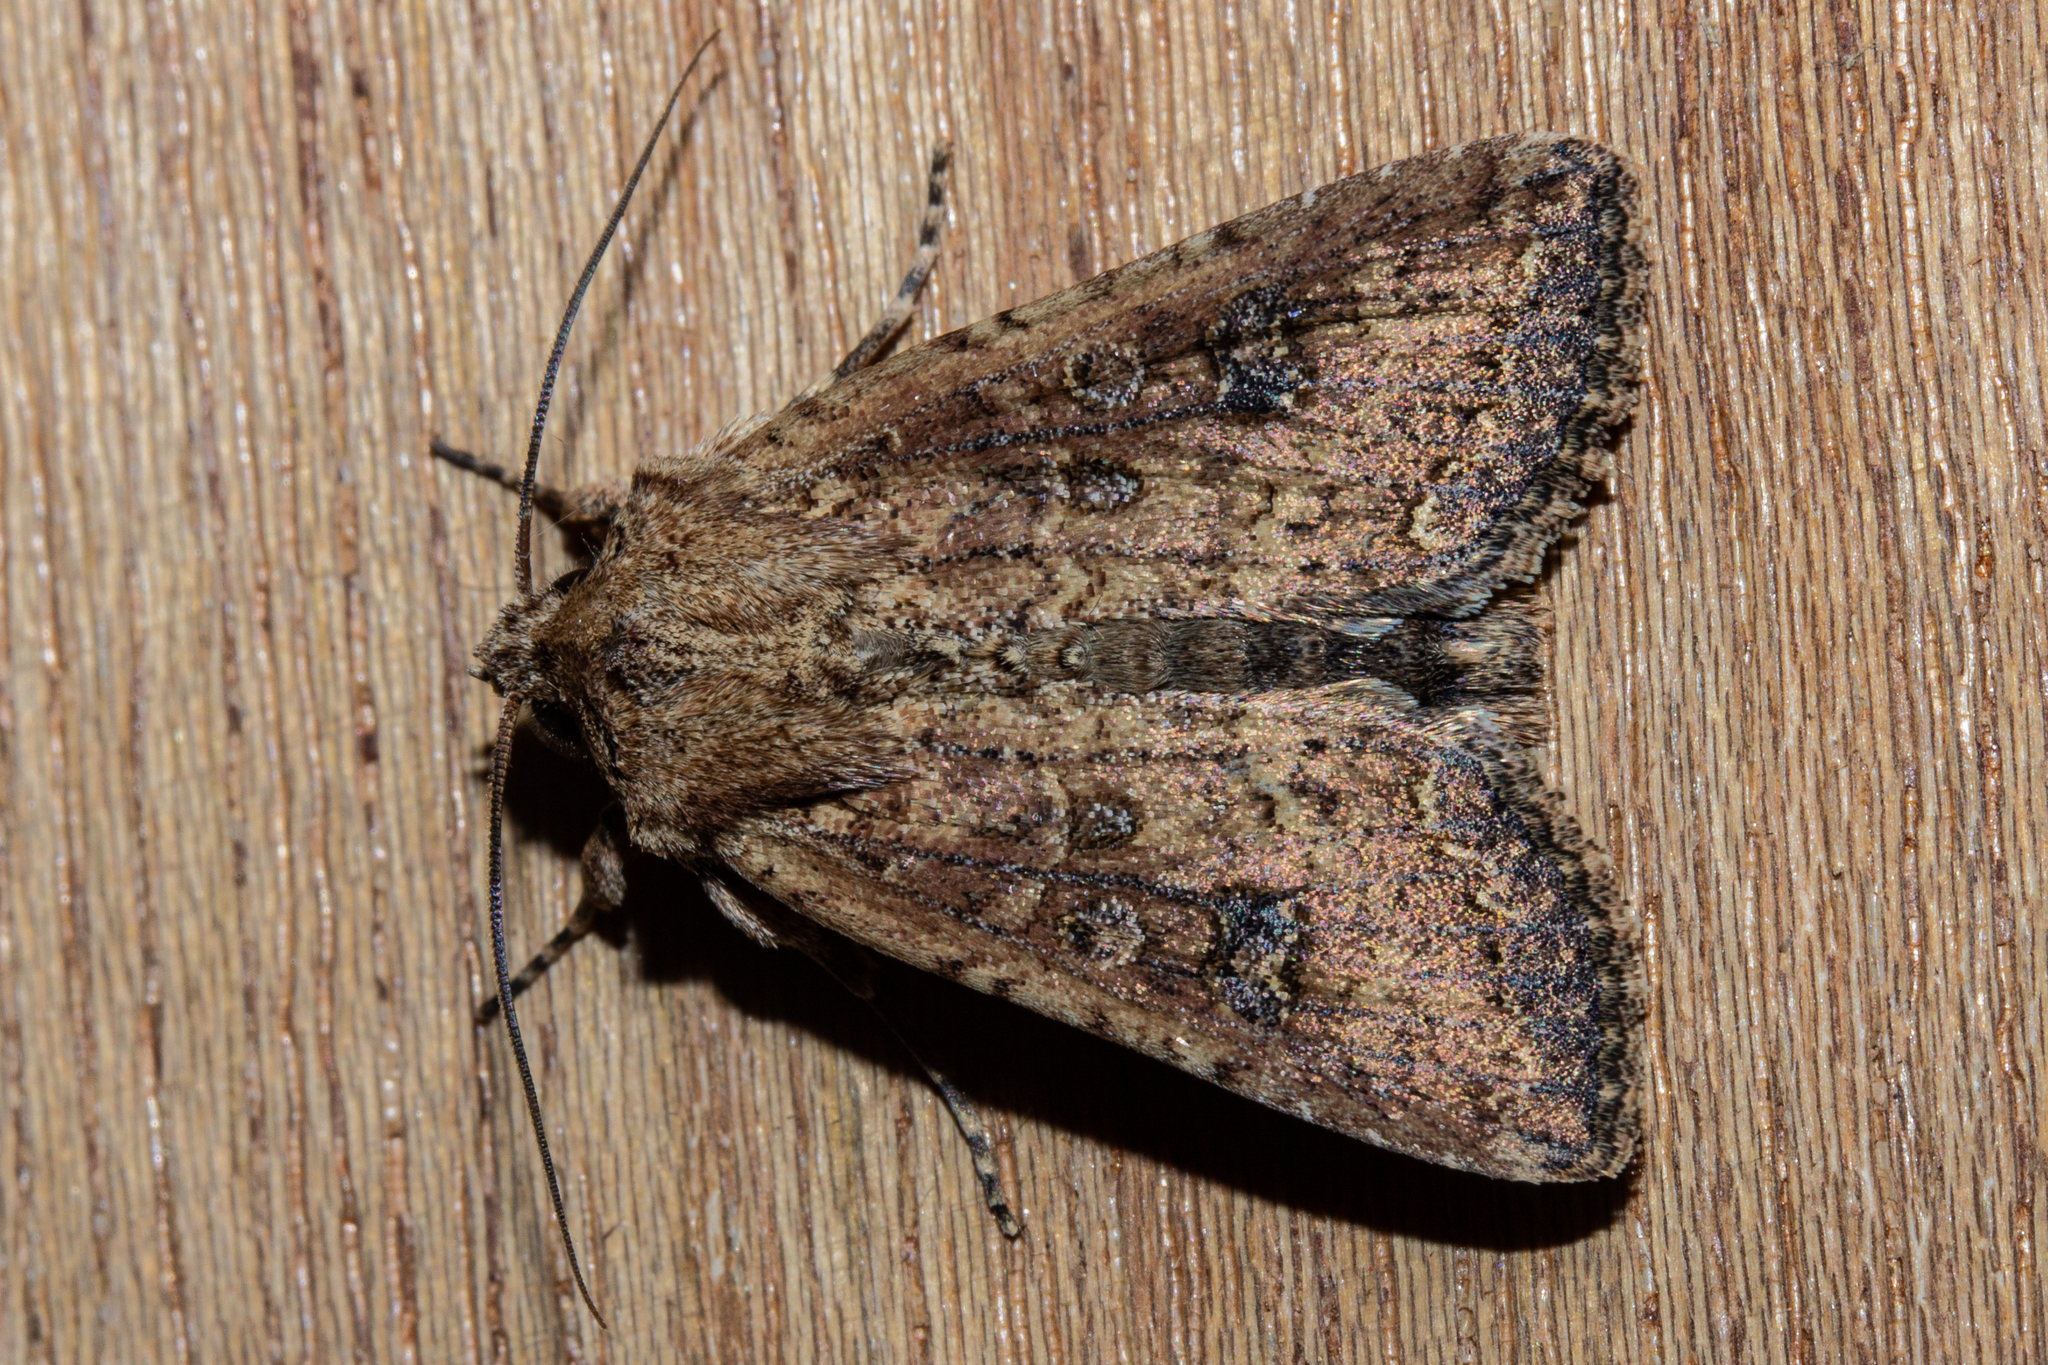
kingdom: Animalia
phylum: Arthropoda
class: Insecta
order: Lepidoptera
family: Noctuidae
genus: Ichneutica
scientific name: Ichneutica morosa
